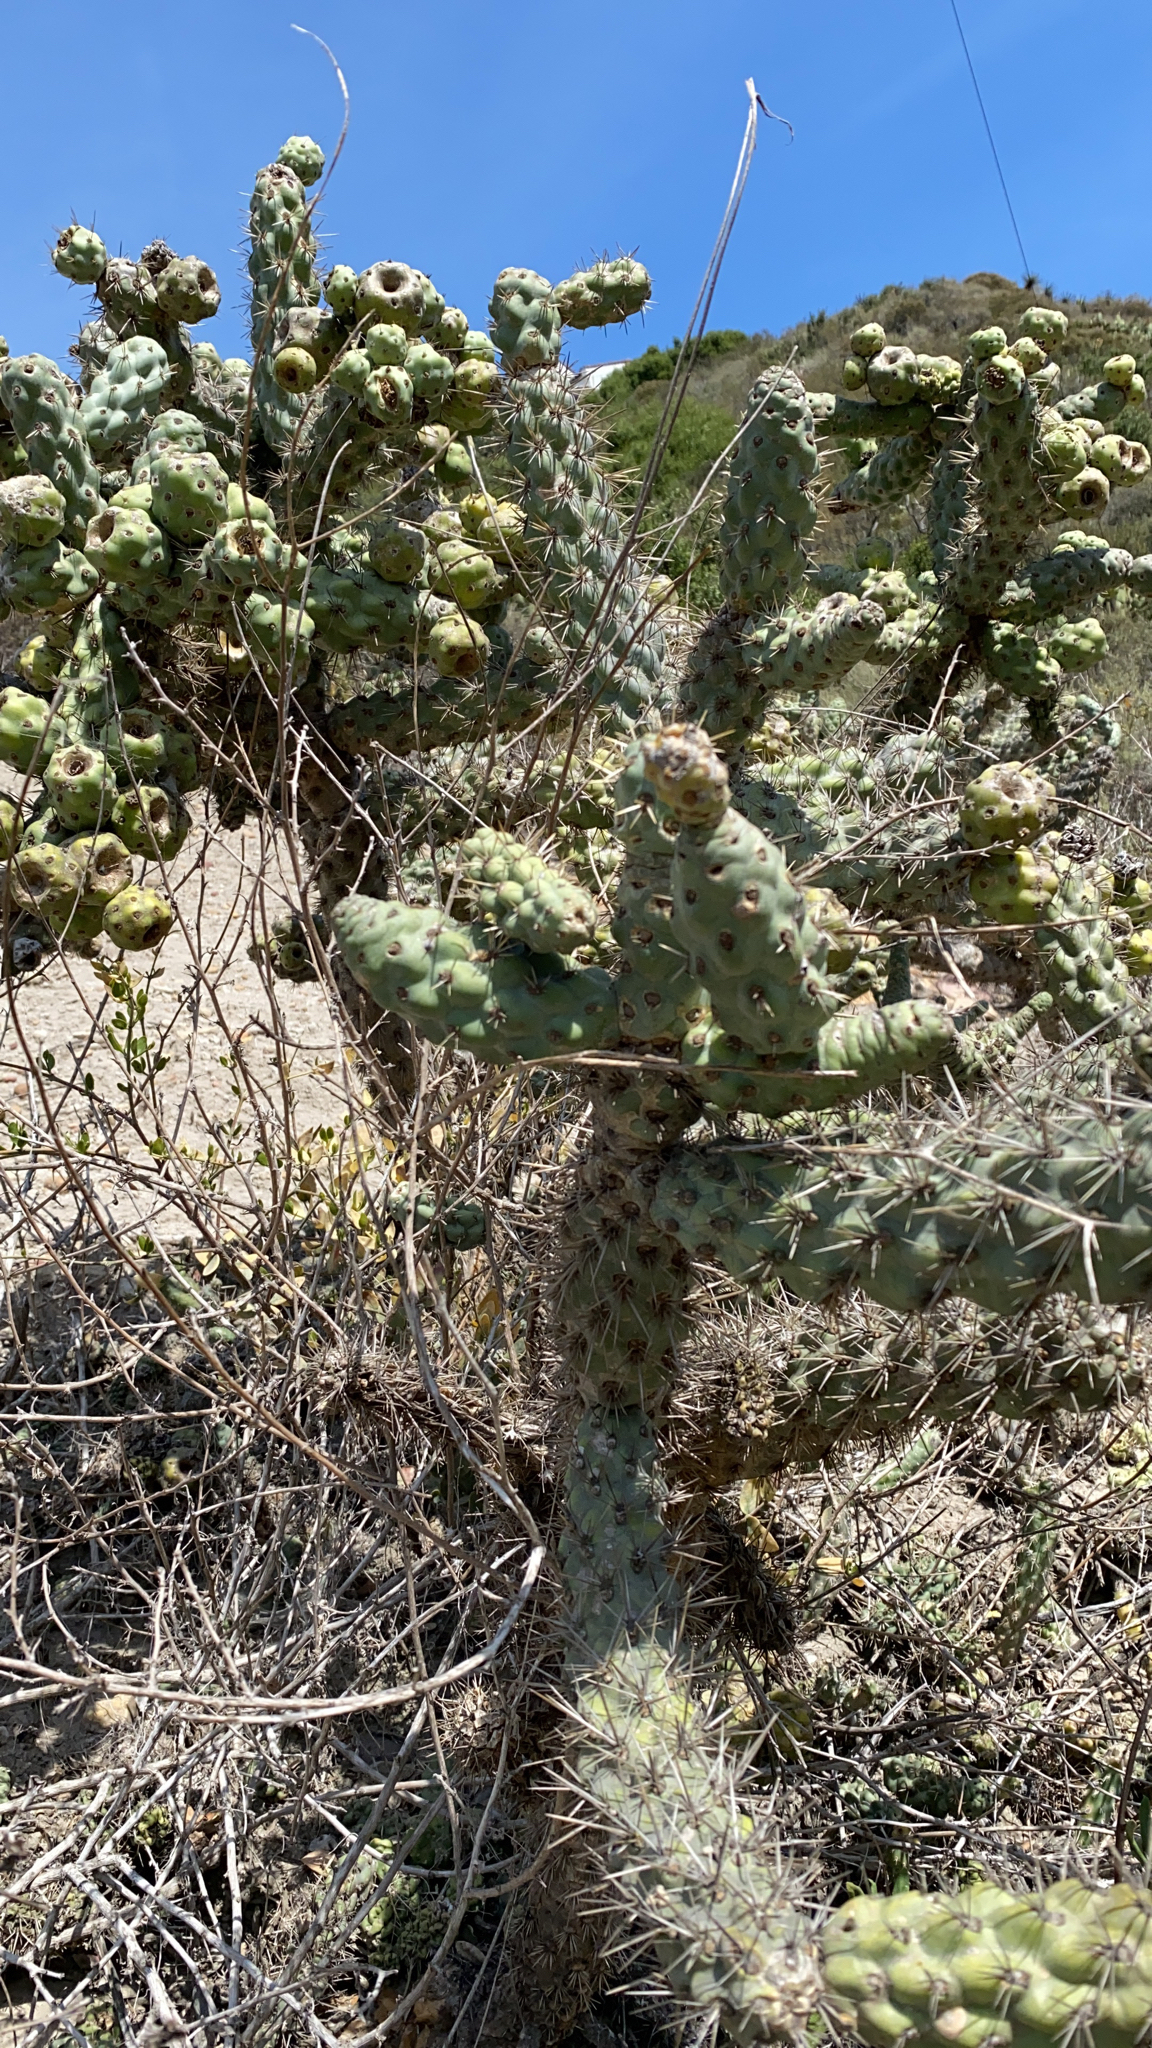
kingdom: Plantae
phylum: Tracheophyta
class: Magnoliopsida
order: Caryophyllales
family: Cactaceae
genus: Cylindropuntia
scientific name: Cylindropuntia prolifera
